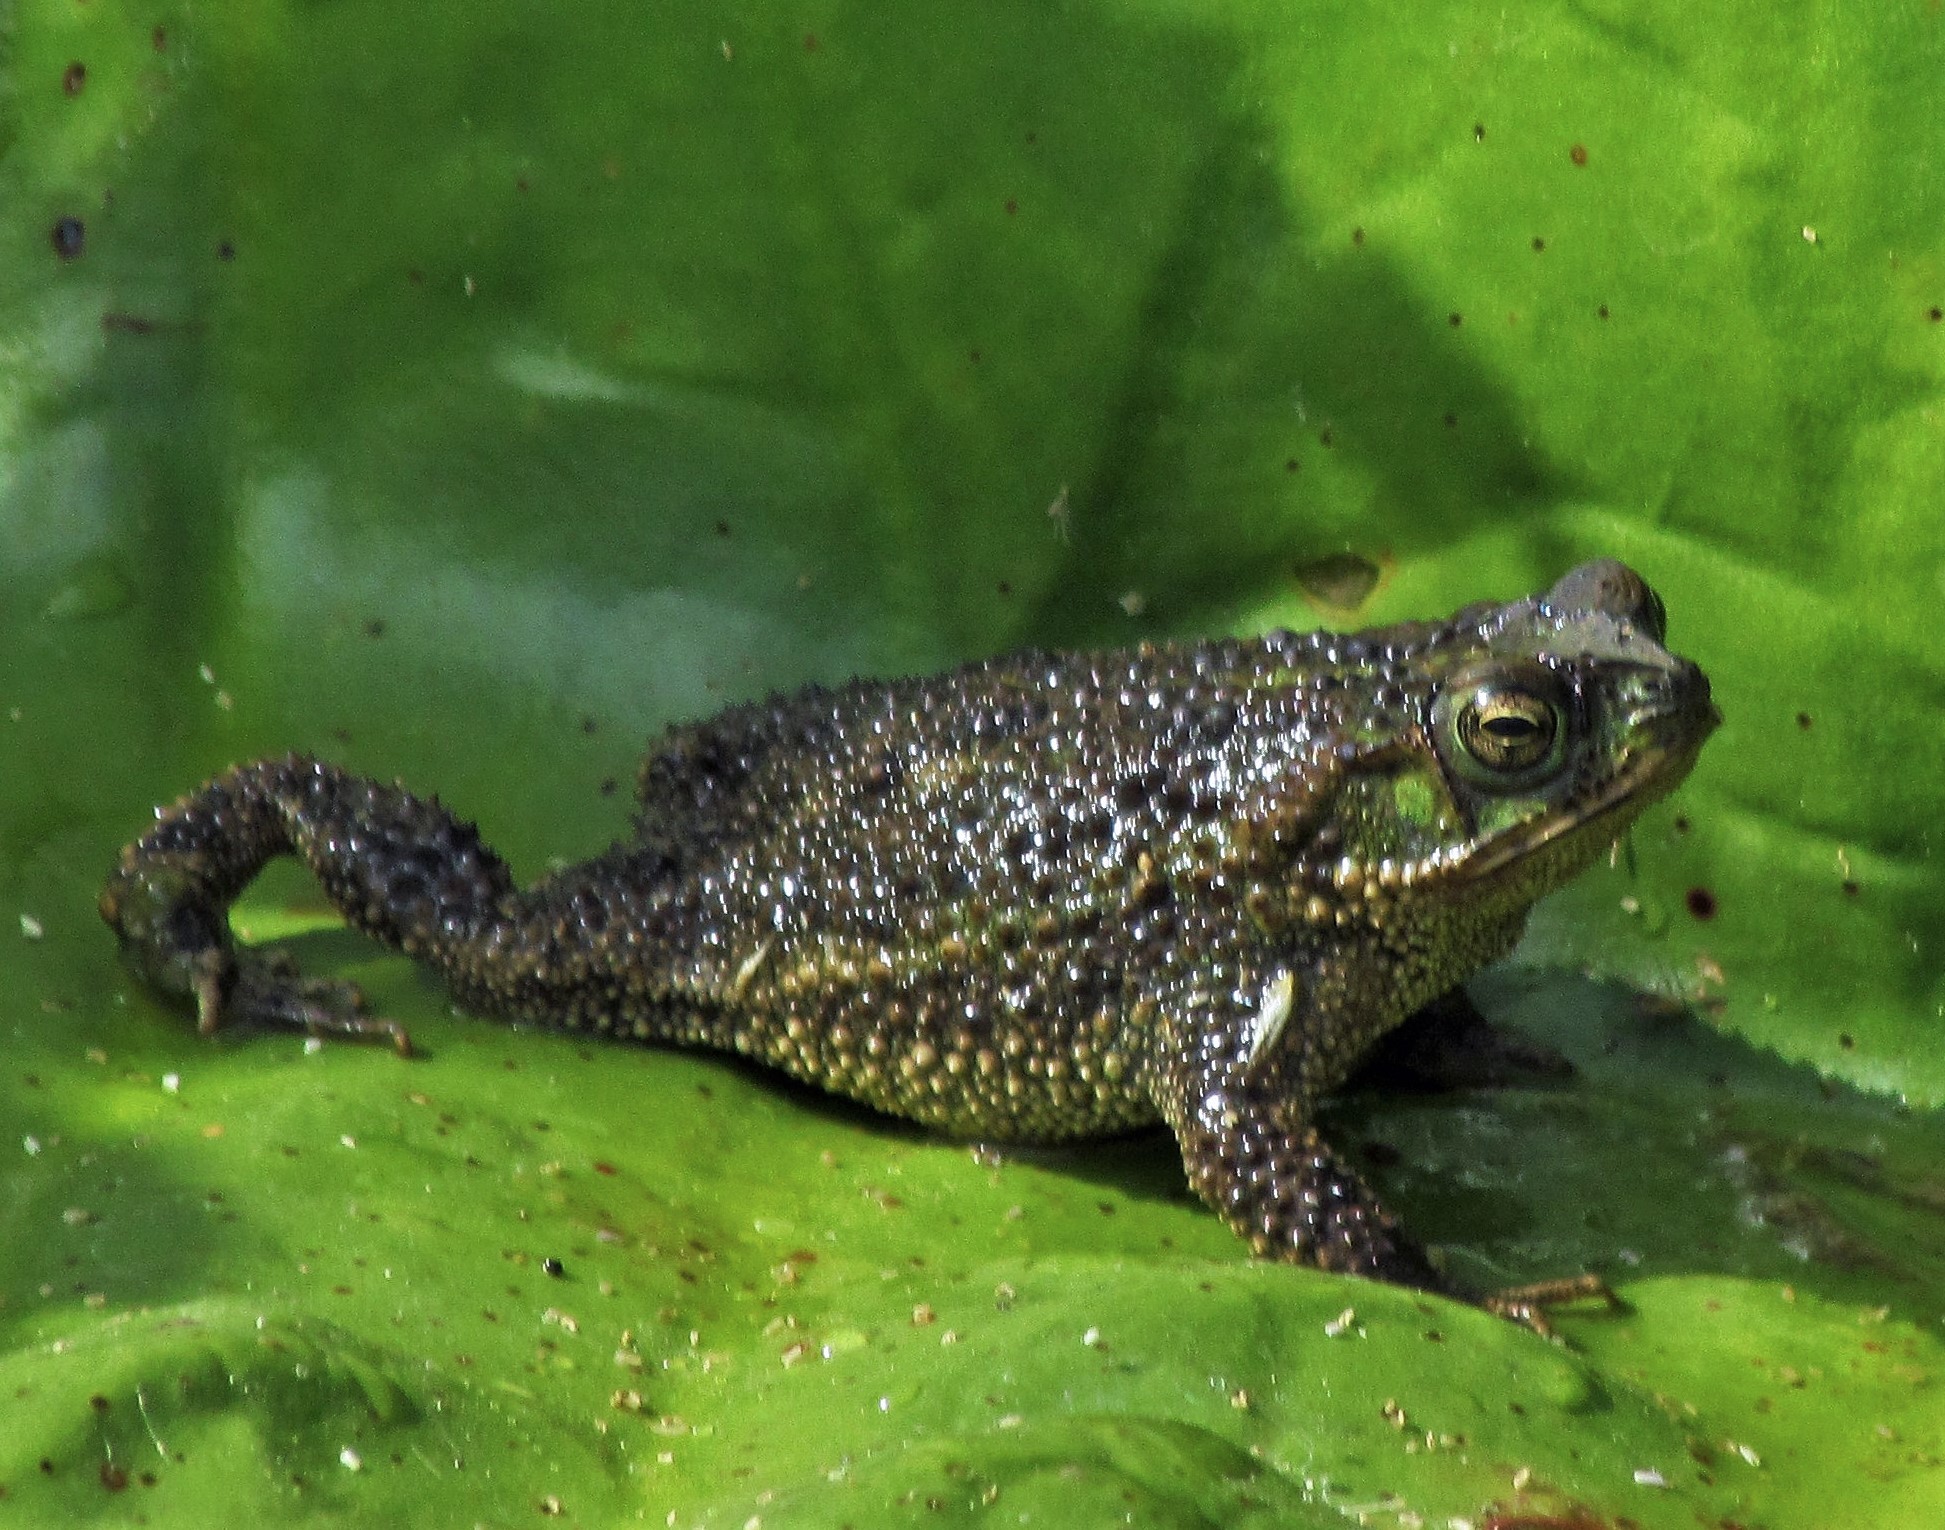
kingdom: Animalia
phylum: Chordata
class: Amphibia
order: Anura
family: Bufonidae
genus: Rhinella
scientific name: Rhinella dorbignyi
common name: D´orbigny’s toad
